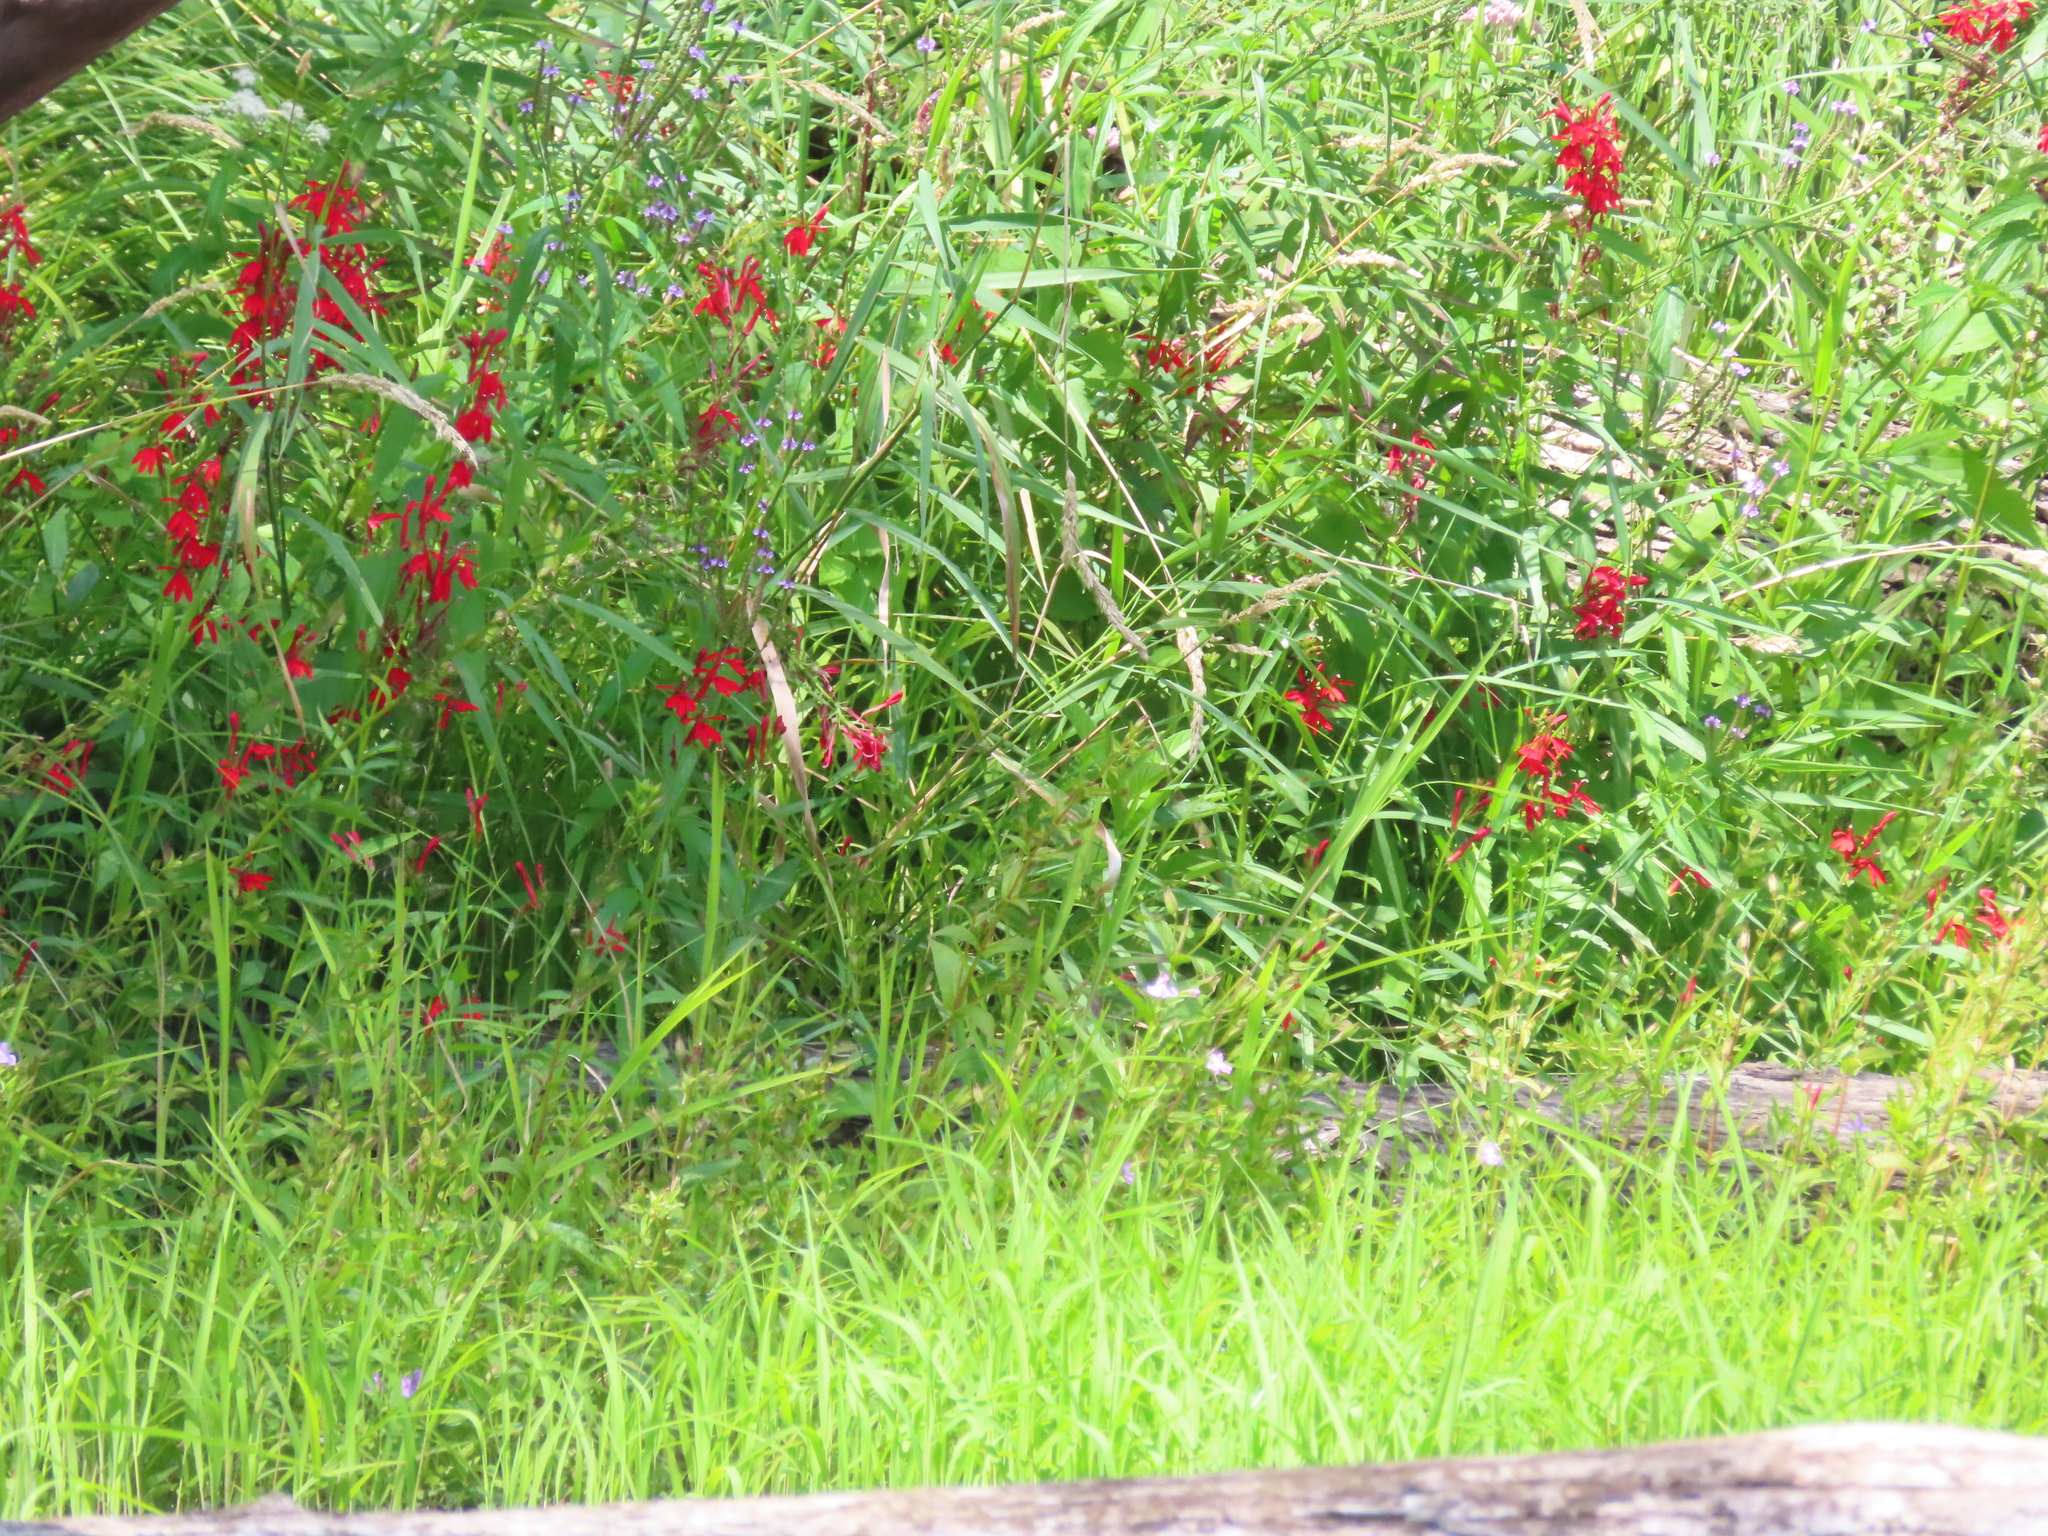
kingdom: Plantae
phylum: Tracheophyta
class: Magnoliopsida
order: Asterales
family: Campanulaceae
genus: Lobelia
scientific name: Lobelia cardinalis
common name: Cardinal flower
